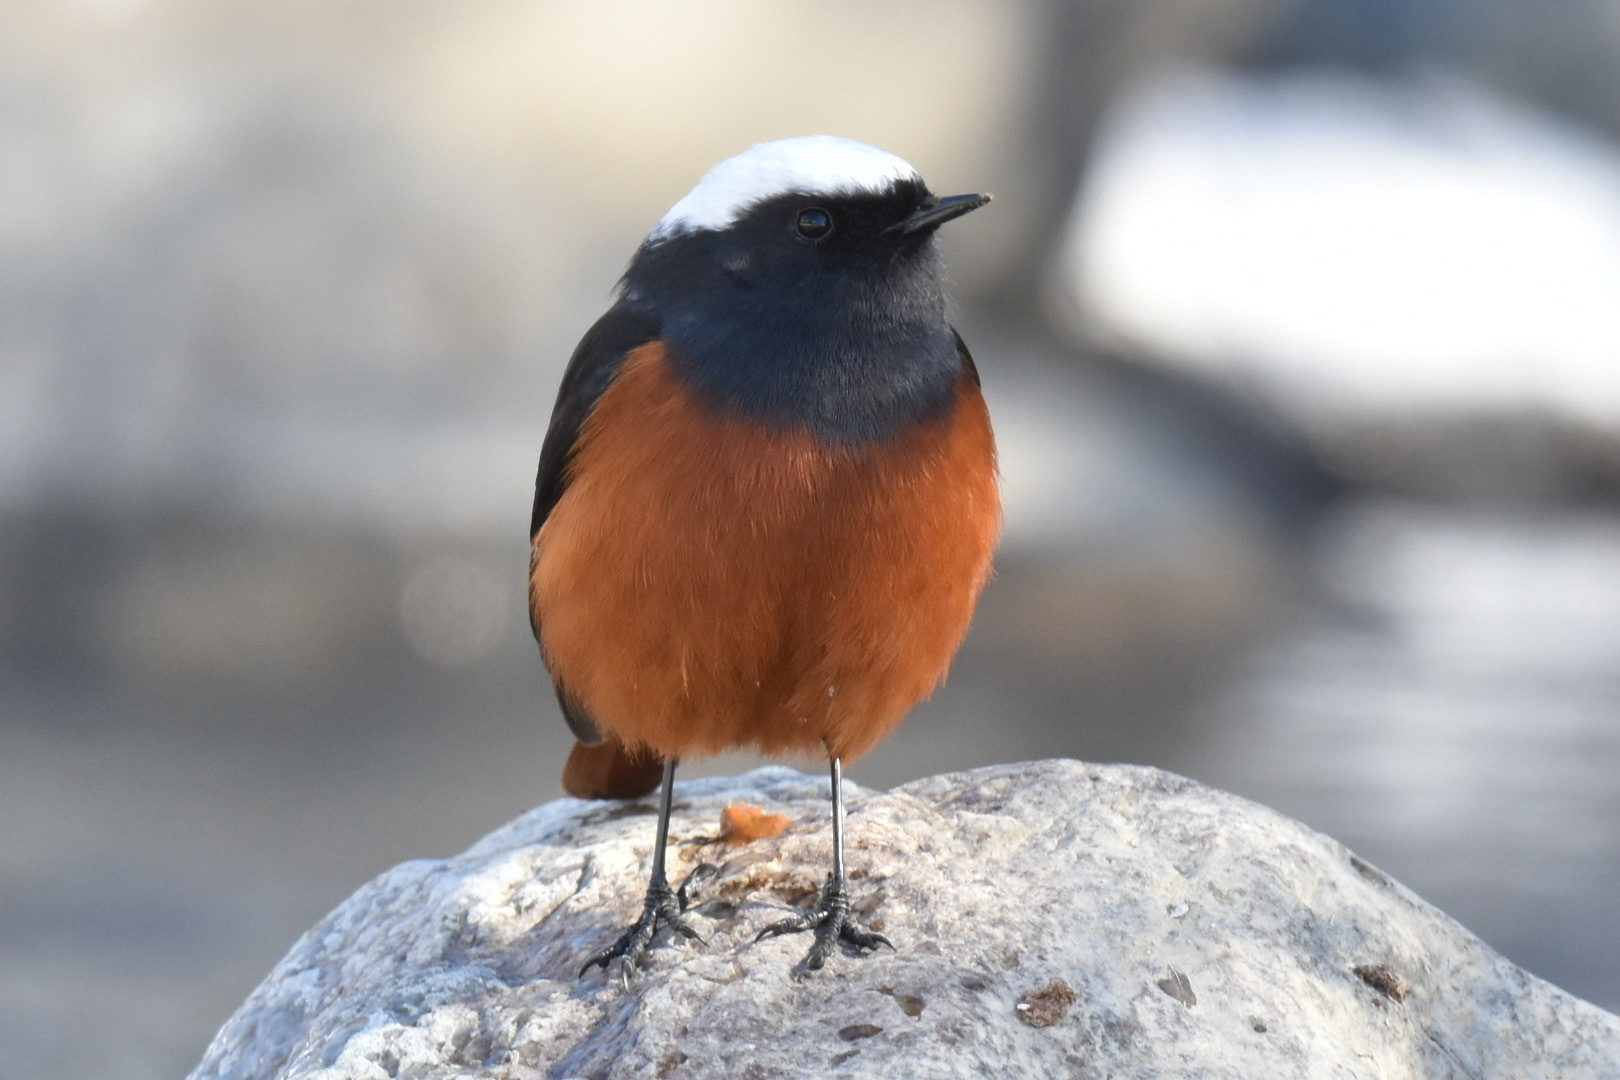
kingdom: Animalia
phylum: Chordata
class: Aves
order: Passeriformes
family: Muscicapidae
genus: Phoenicurus
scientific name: Phoenicurus erythrogastrus
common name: Güldenstädt's redstart
